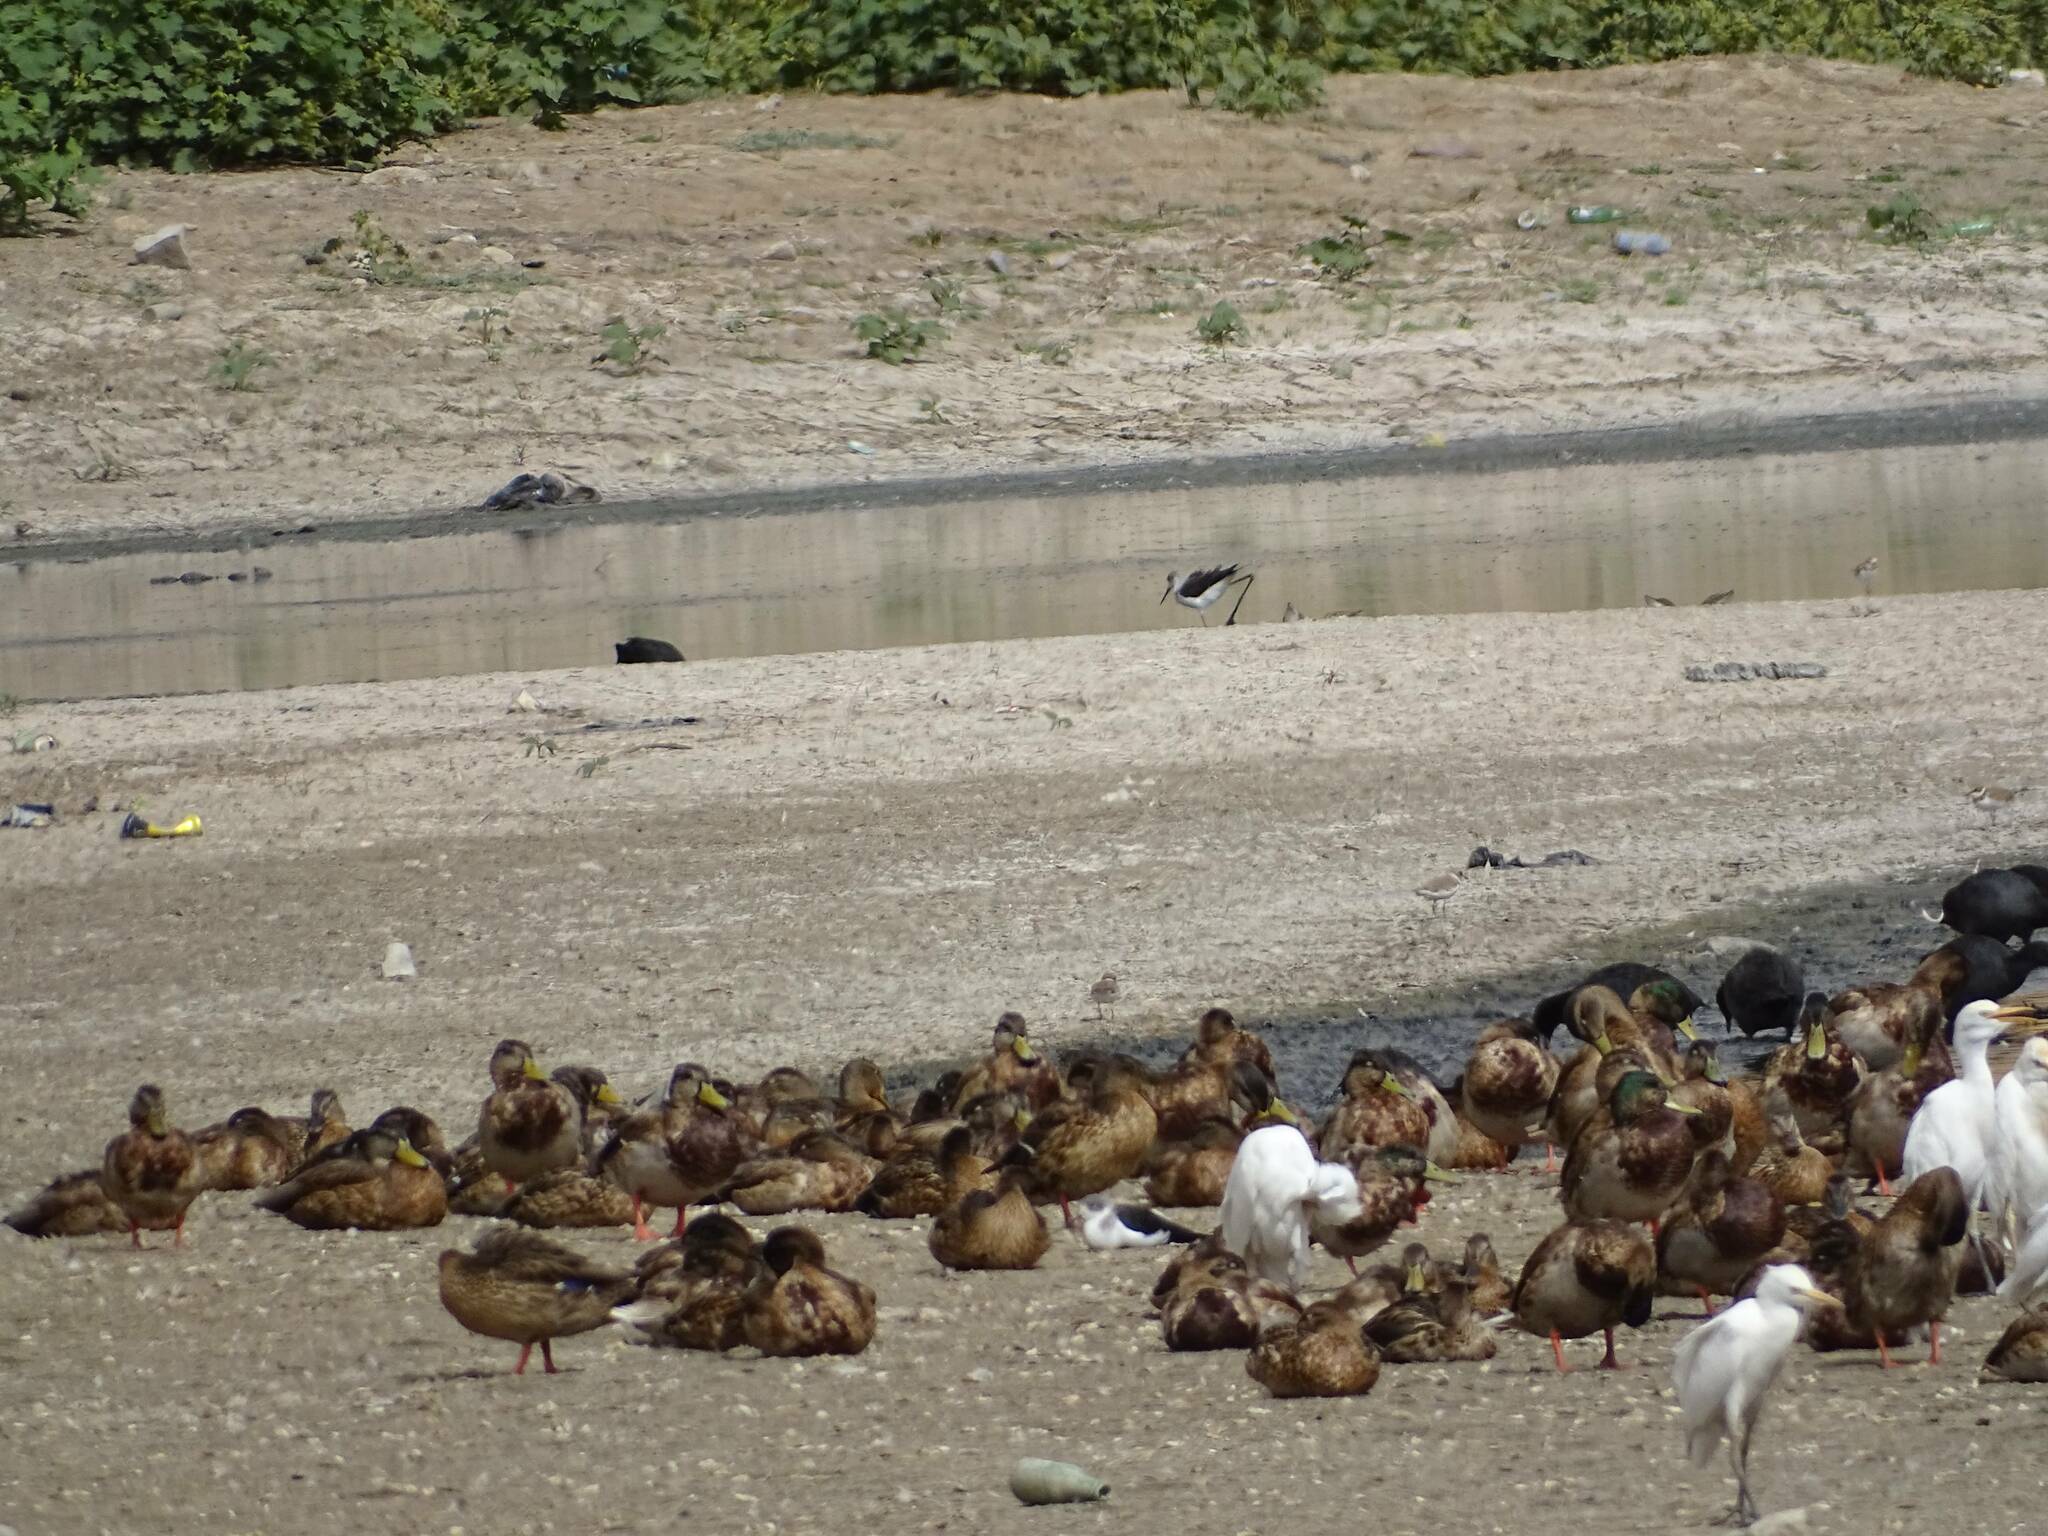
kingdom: Animalia
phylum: Chordata
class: Aves
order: Anseriformes
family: Anatidae
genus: Anas
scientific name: Anas platyrhynchos
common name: Mallard
